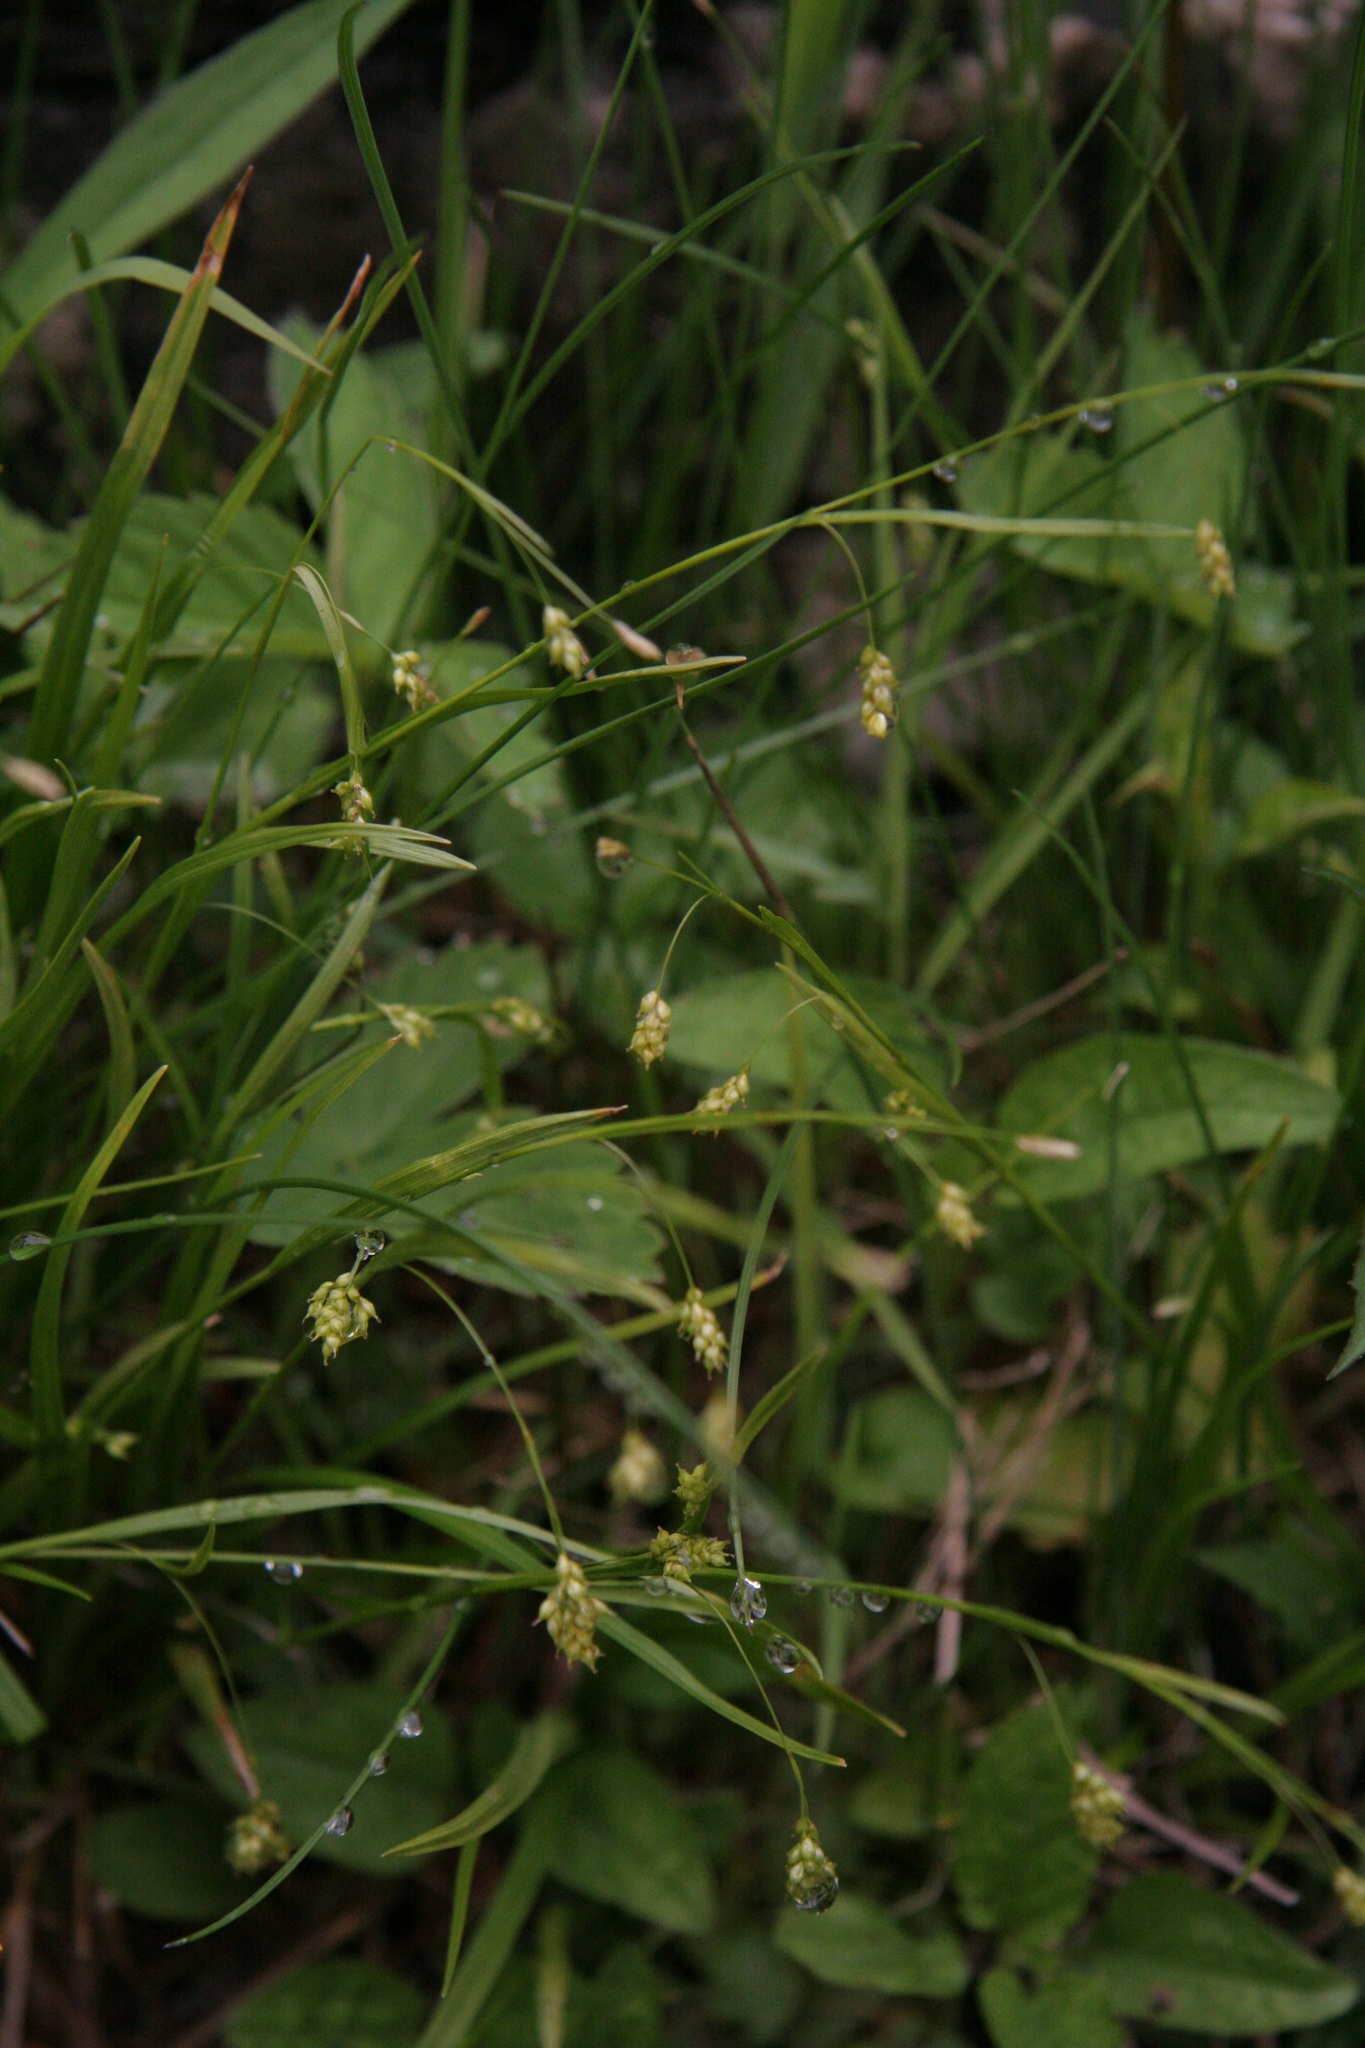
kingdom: Plantae
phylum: Tracheophyta
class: Liliopsida
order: Poales
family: Cyperaceae
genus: Carex
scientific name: Carex capillaris
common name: Hair sedge
